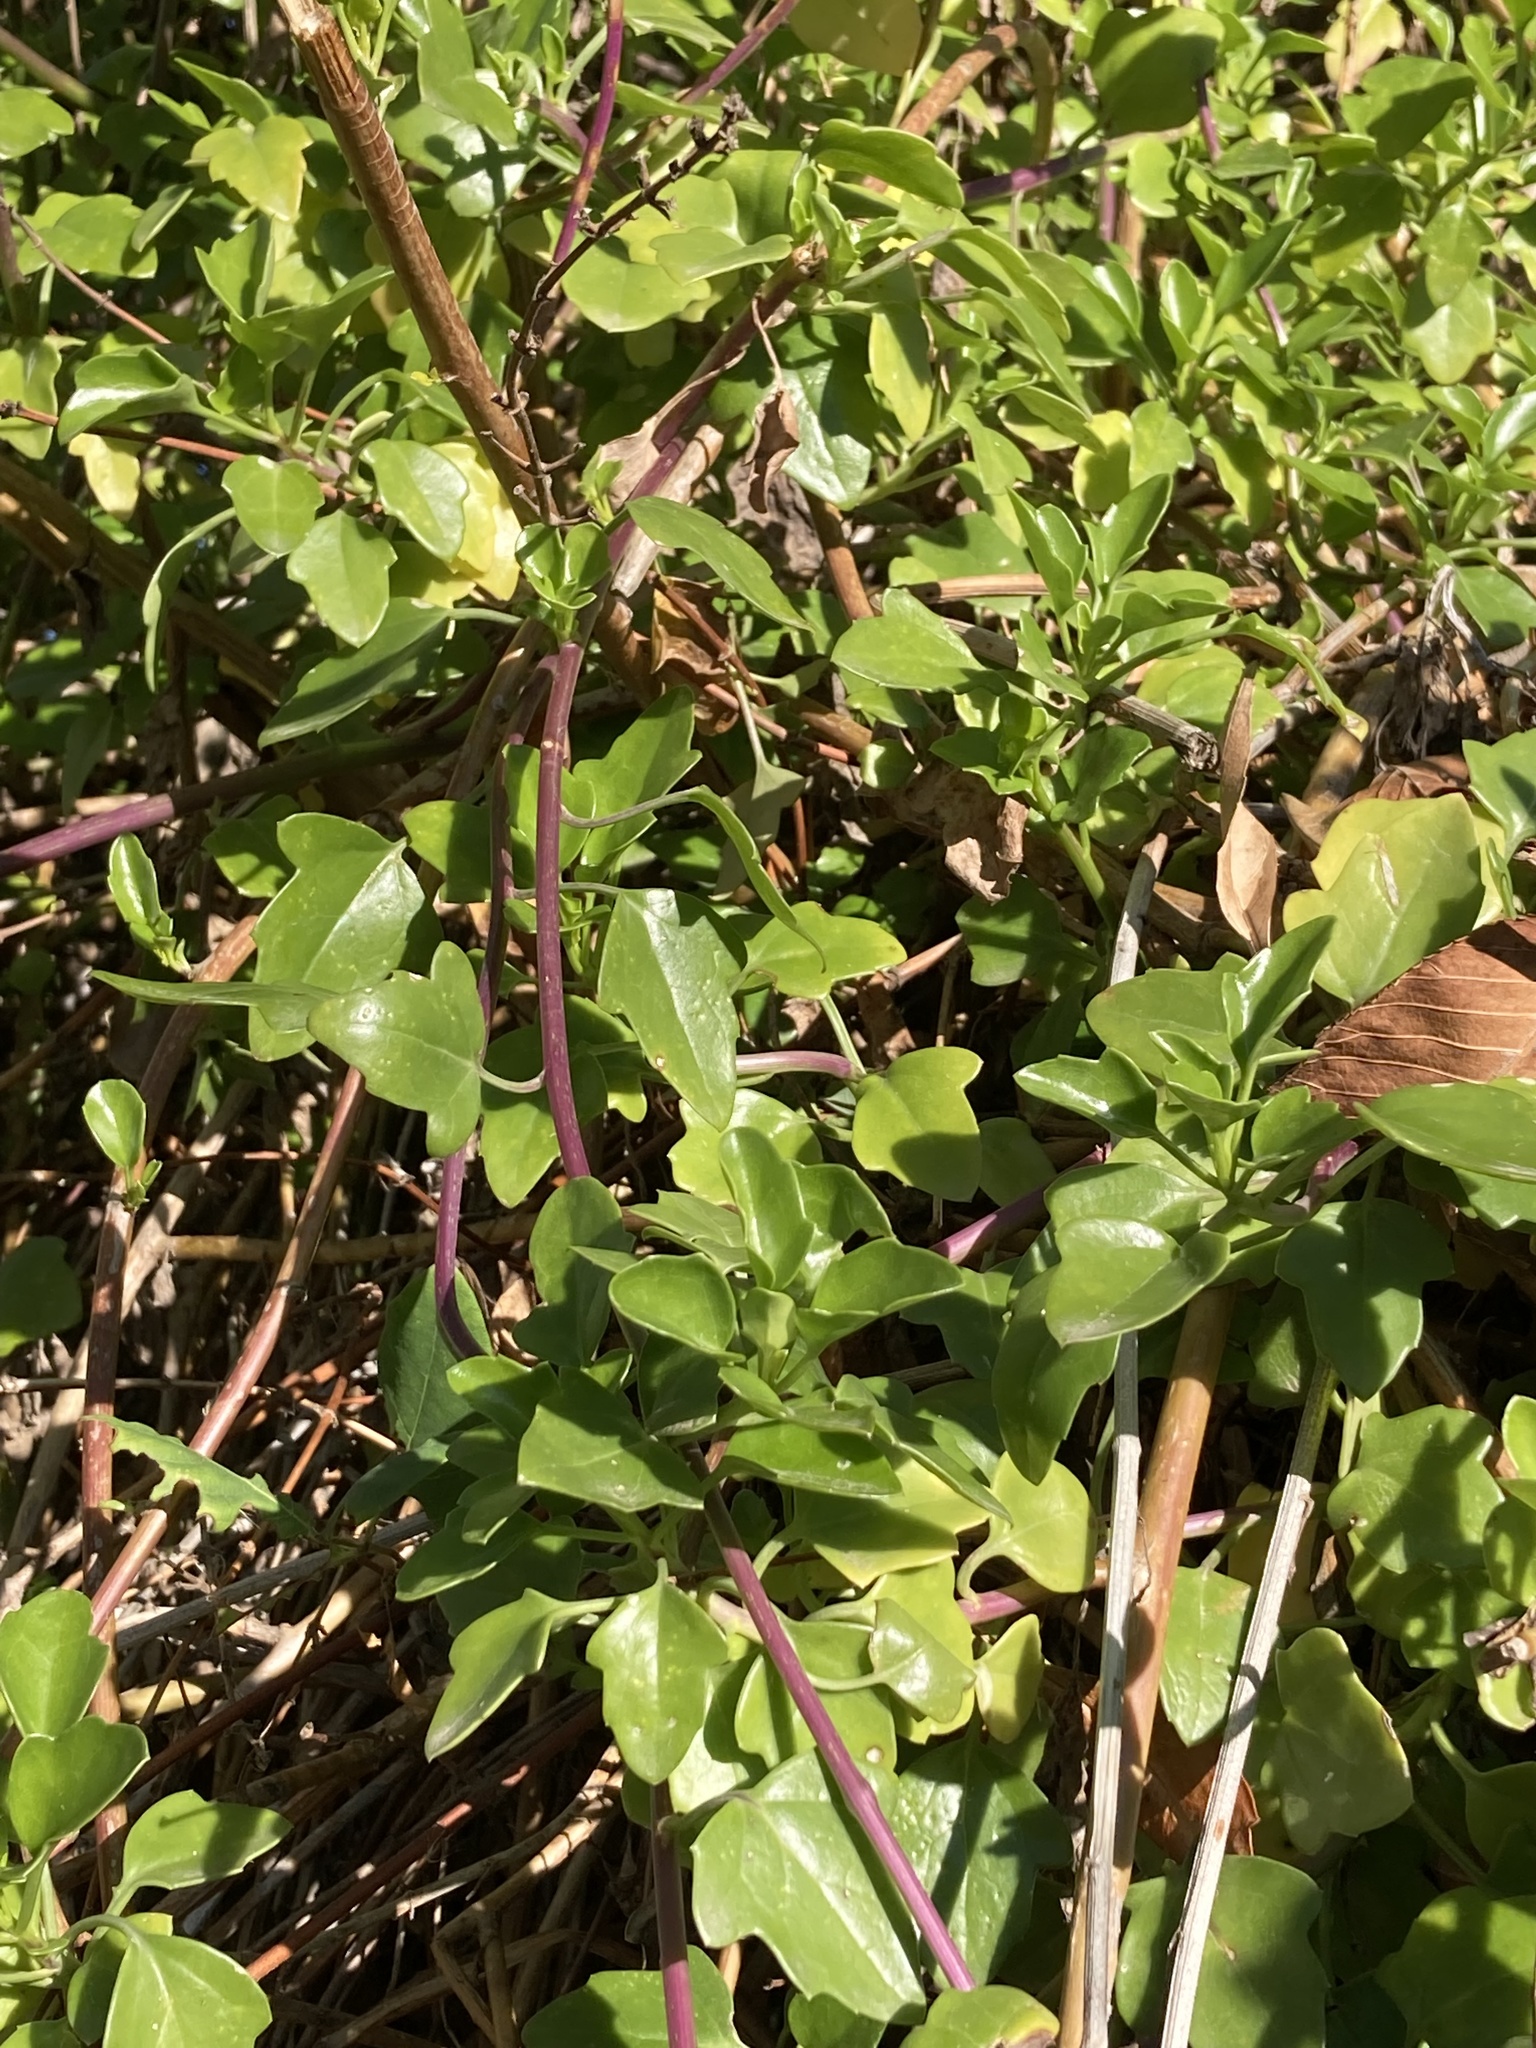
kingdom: Plantae
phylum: Tracheophyta
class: Magnoliopsida
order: Asterales
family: Asteraceae
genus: Senecio
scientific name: Senecio angulatus
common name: Climbing groundsel
